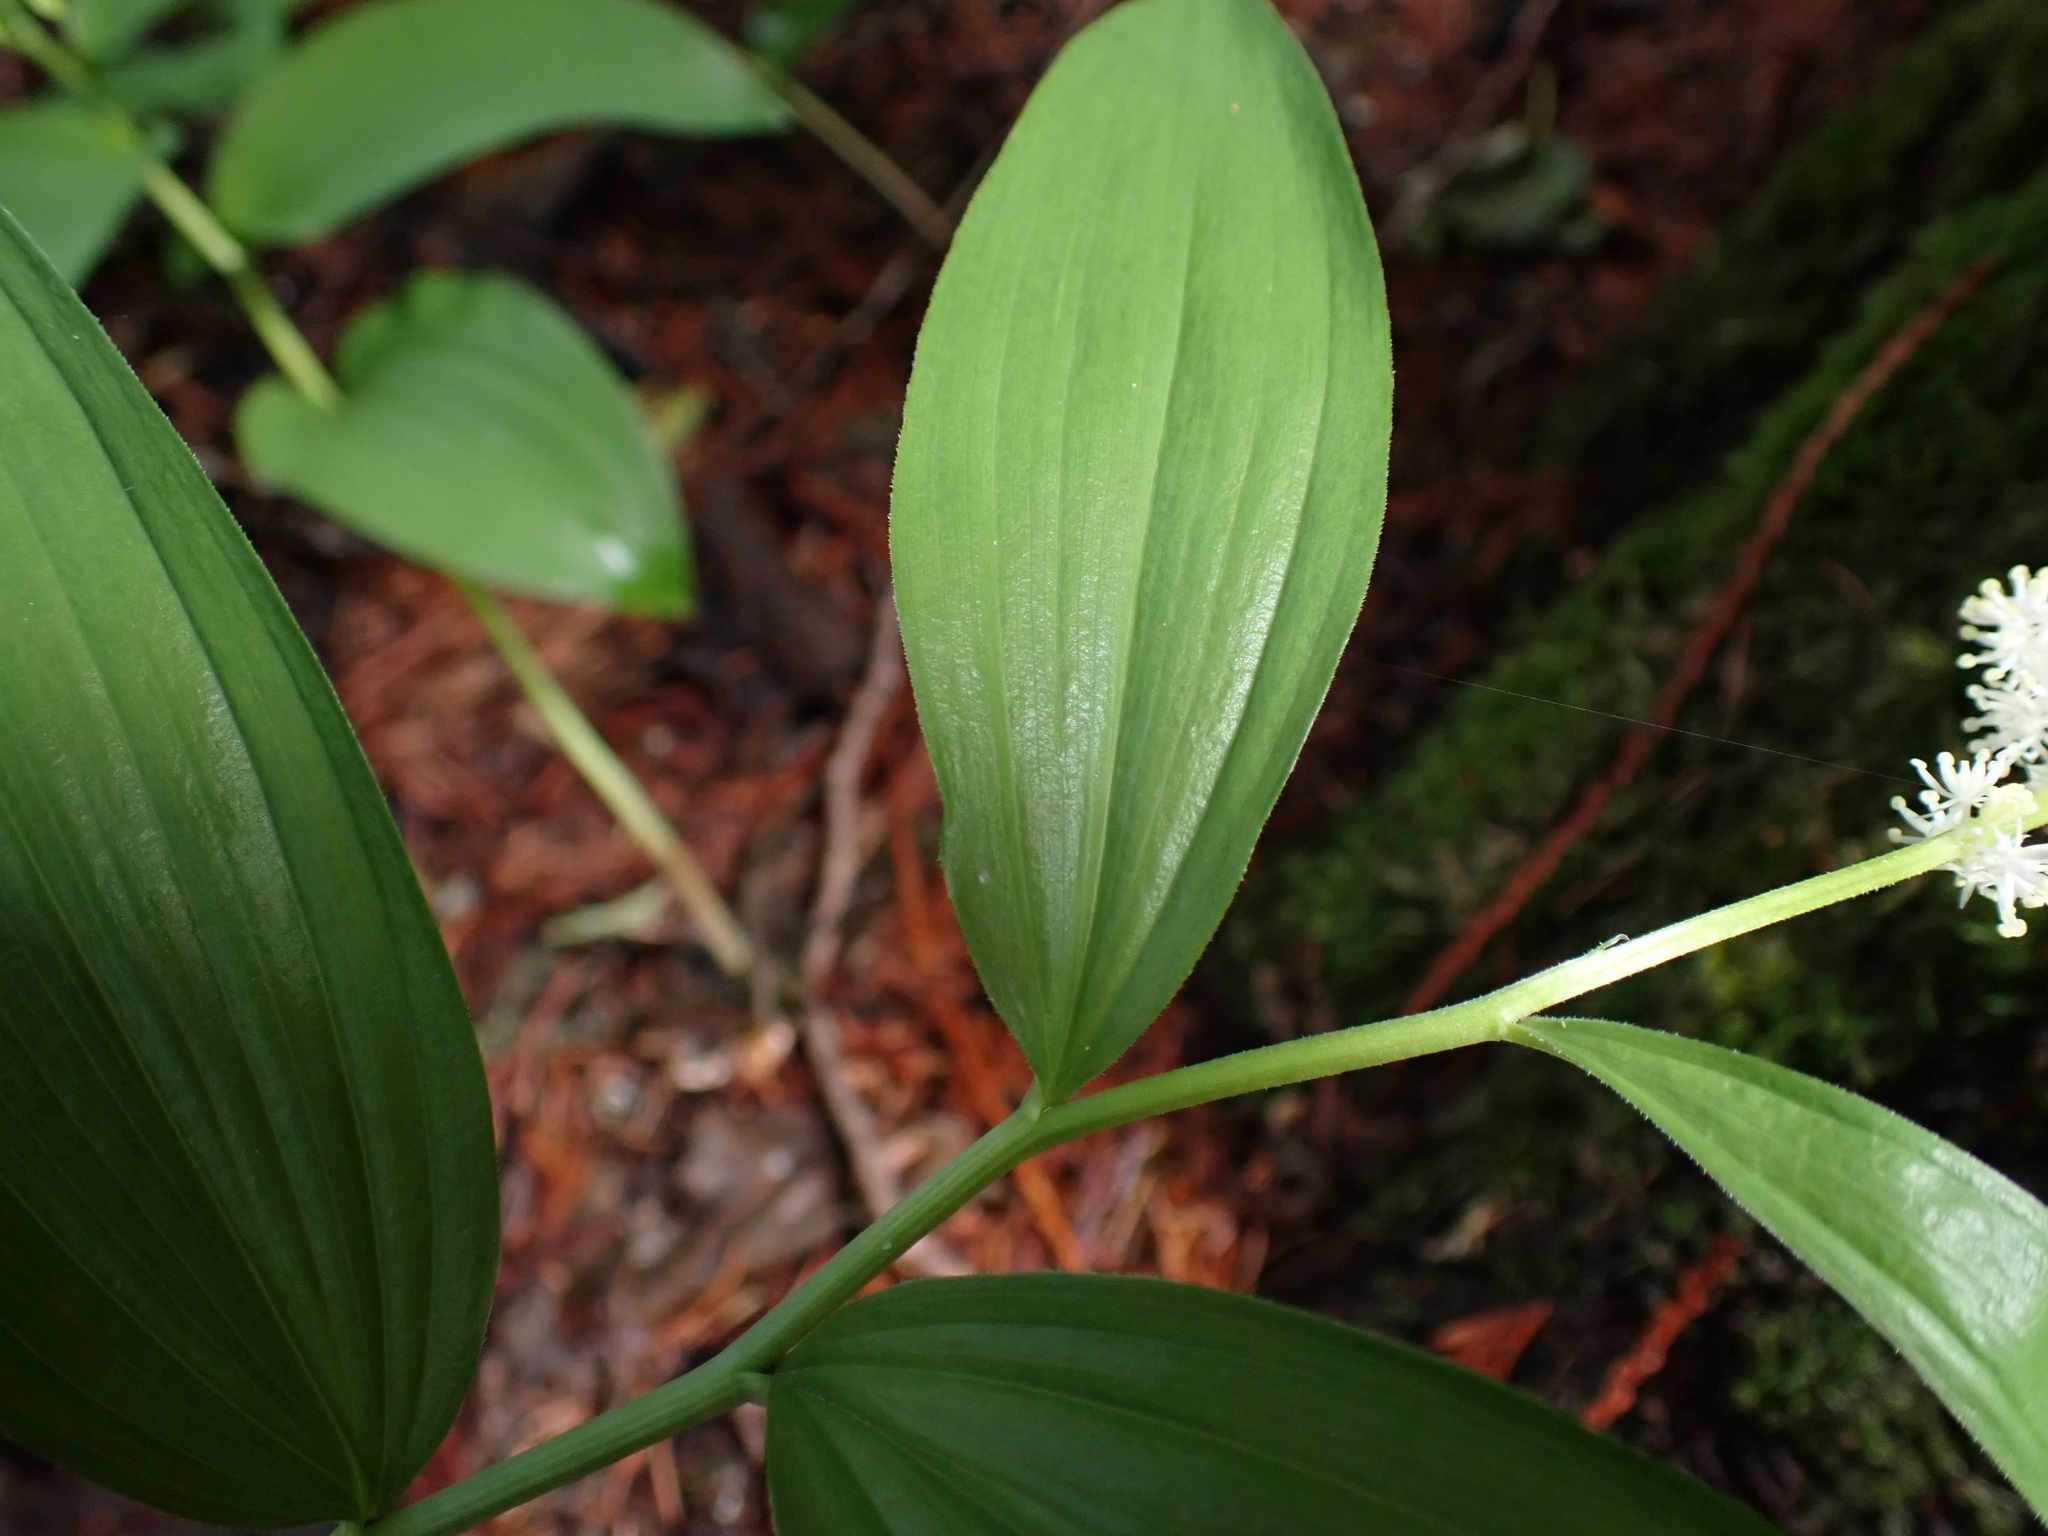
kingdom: Plantae
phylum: Tracheophyta
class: Liliopsida
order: Asparagales
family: Asparagaceae
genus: Maianthemum
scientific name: Maianthemum racemosum
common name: False spikenard
